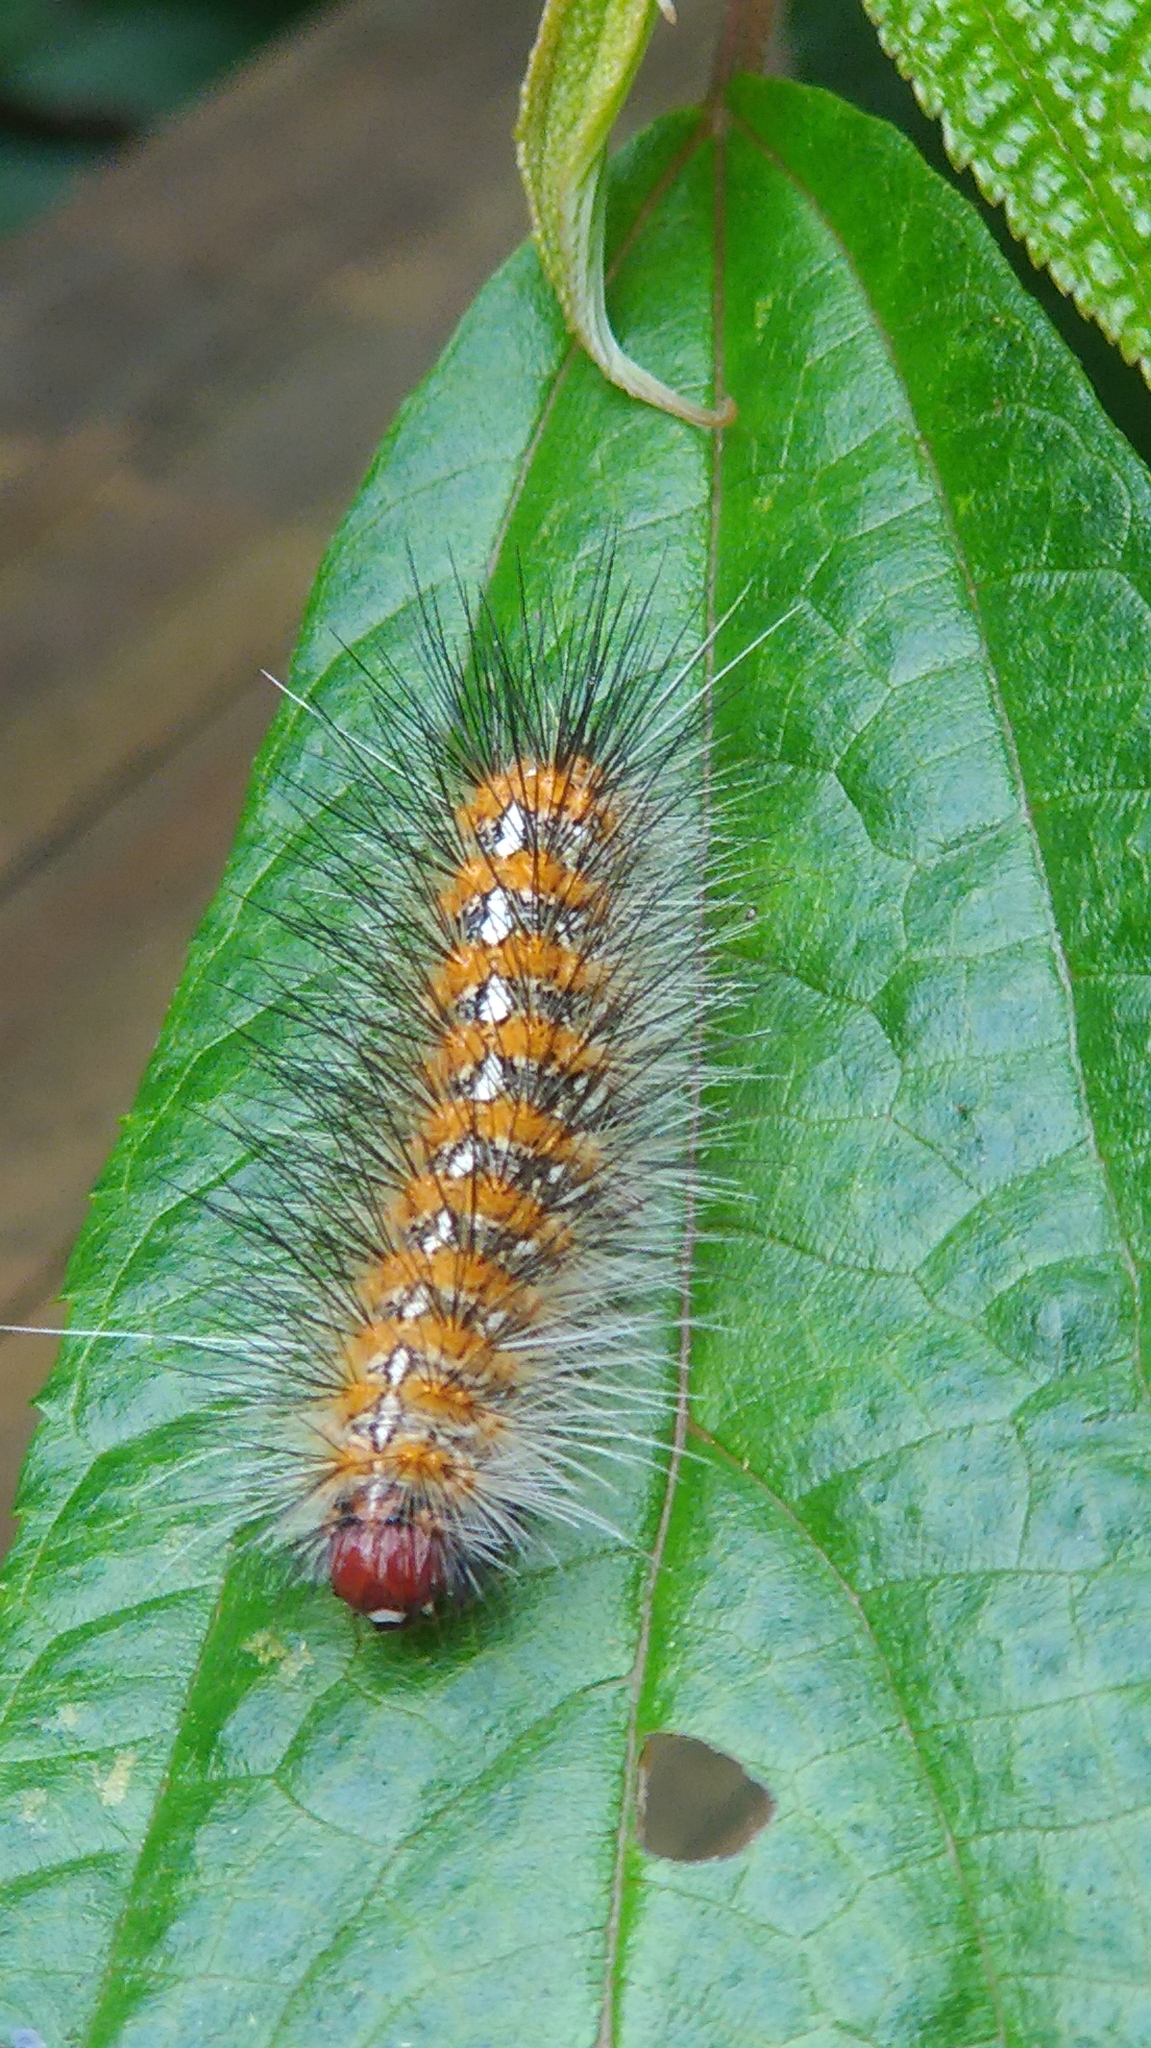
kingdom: Animalia
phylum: Arthropoda
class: Insecta
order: Lepidoptera
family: Erebidae
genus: Lemyra
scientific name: Lemyra imparilis
